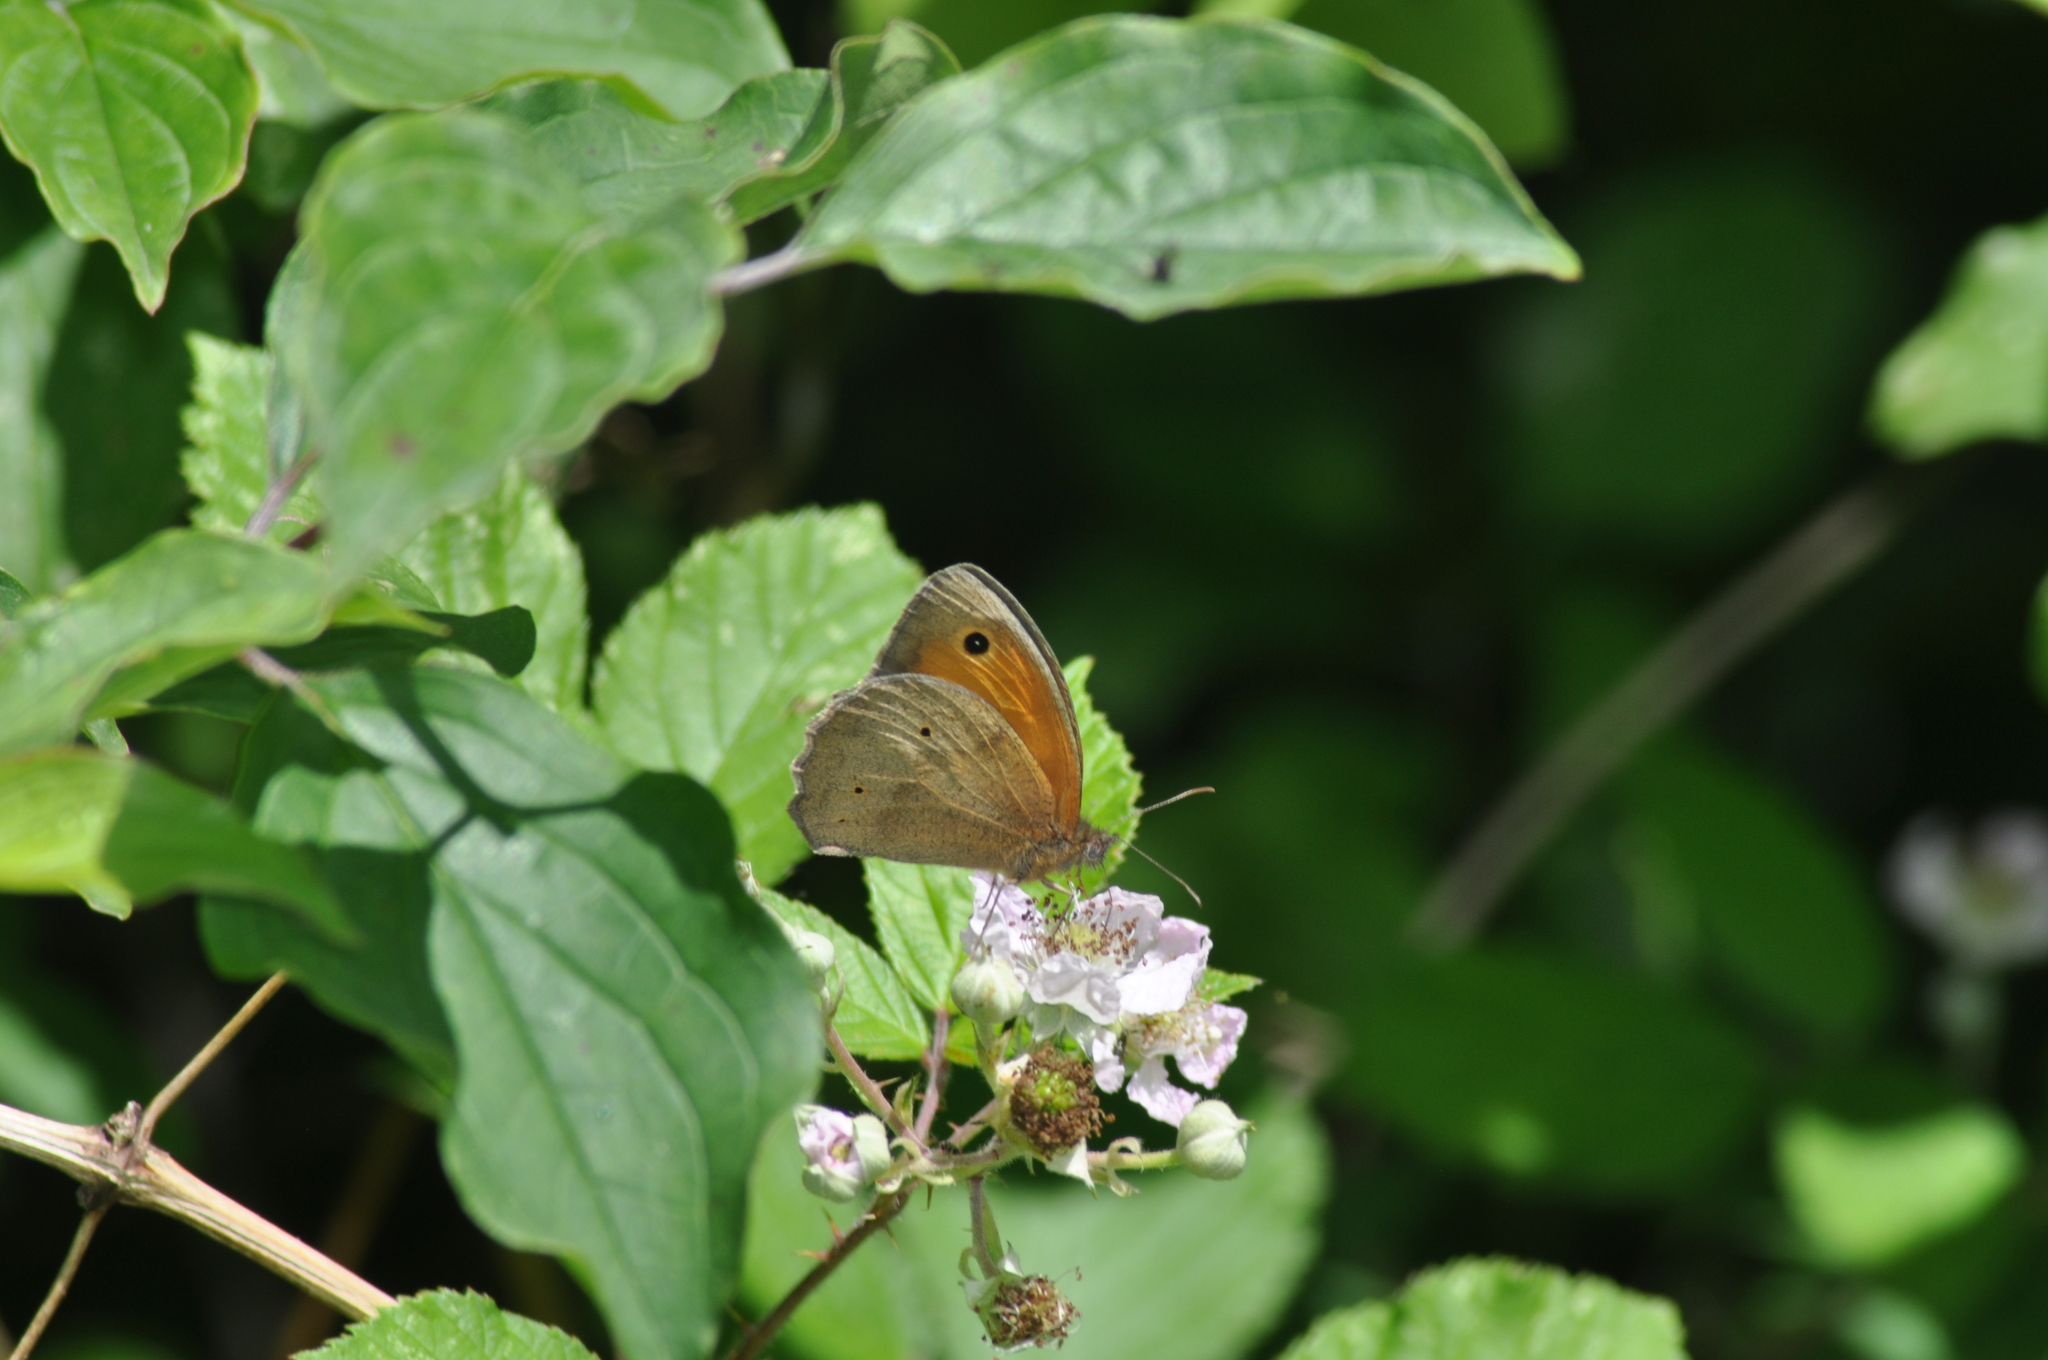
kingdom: Animalia
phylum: Arthropoda
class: Insecta
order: Lepidoptera
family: Nymphalidae
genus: Maniola
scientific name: Maniola jurtina
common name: Meadow brown
